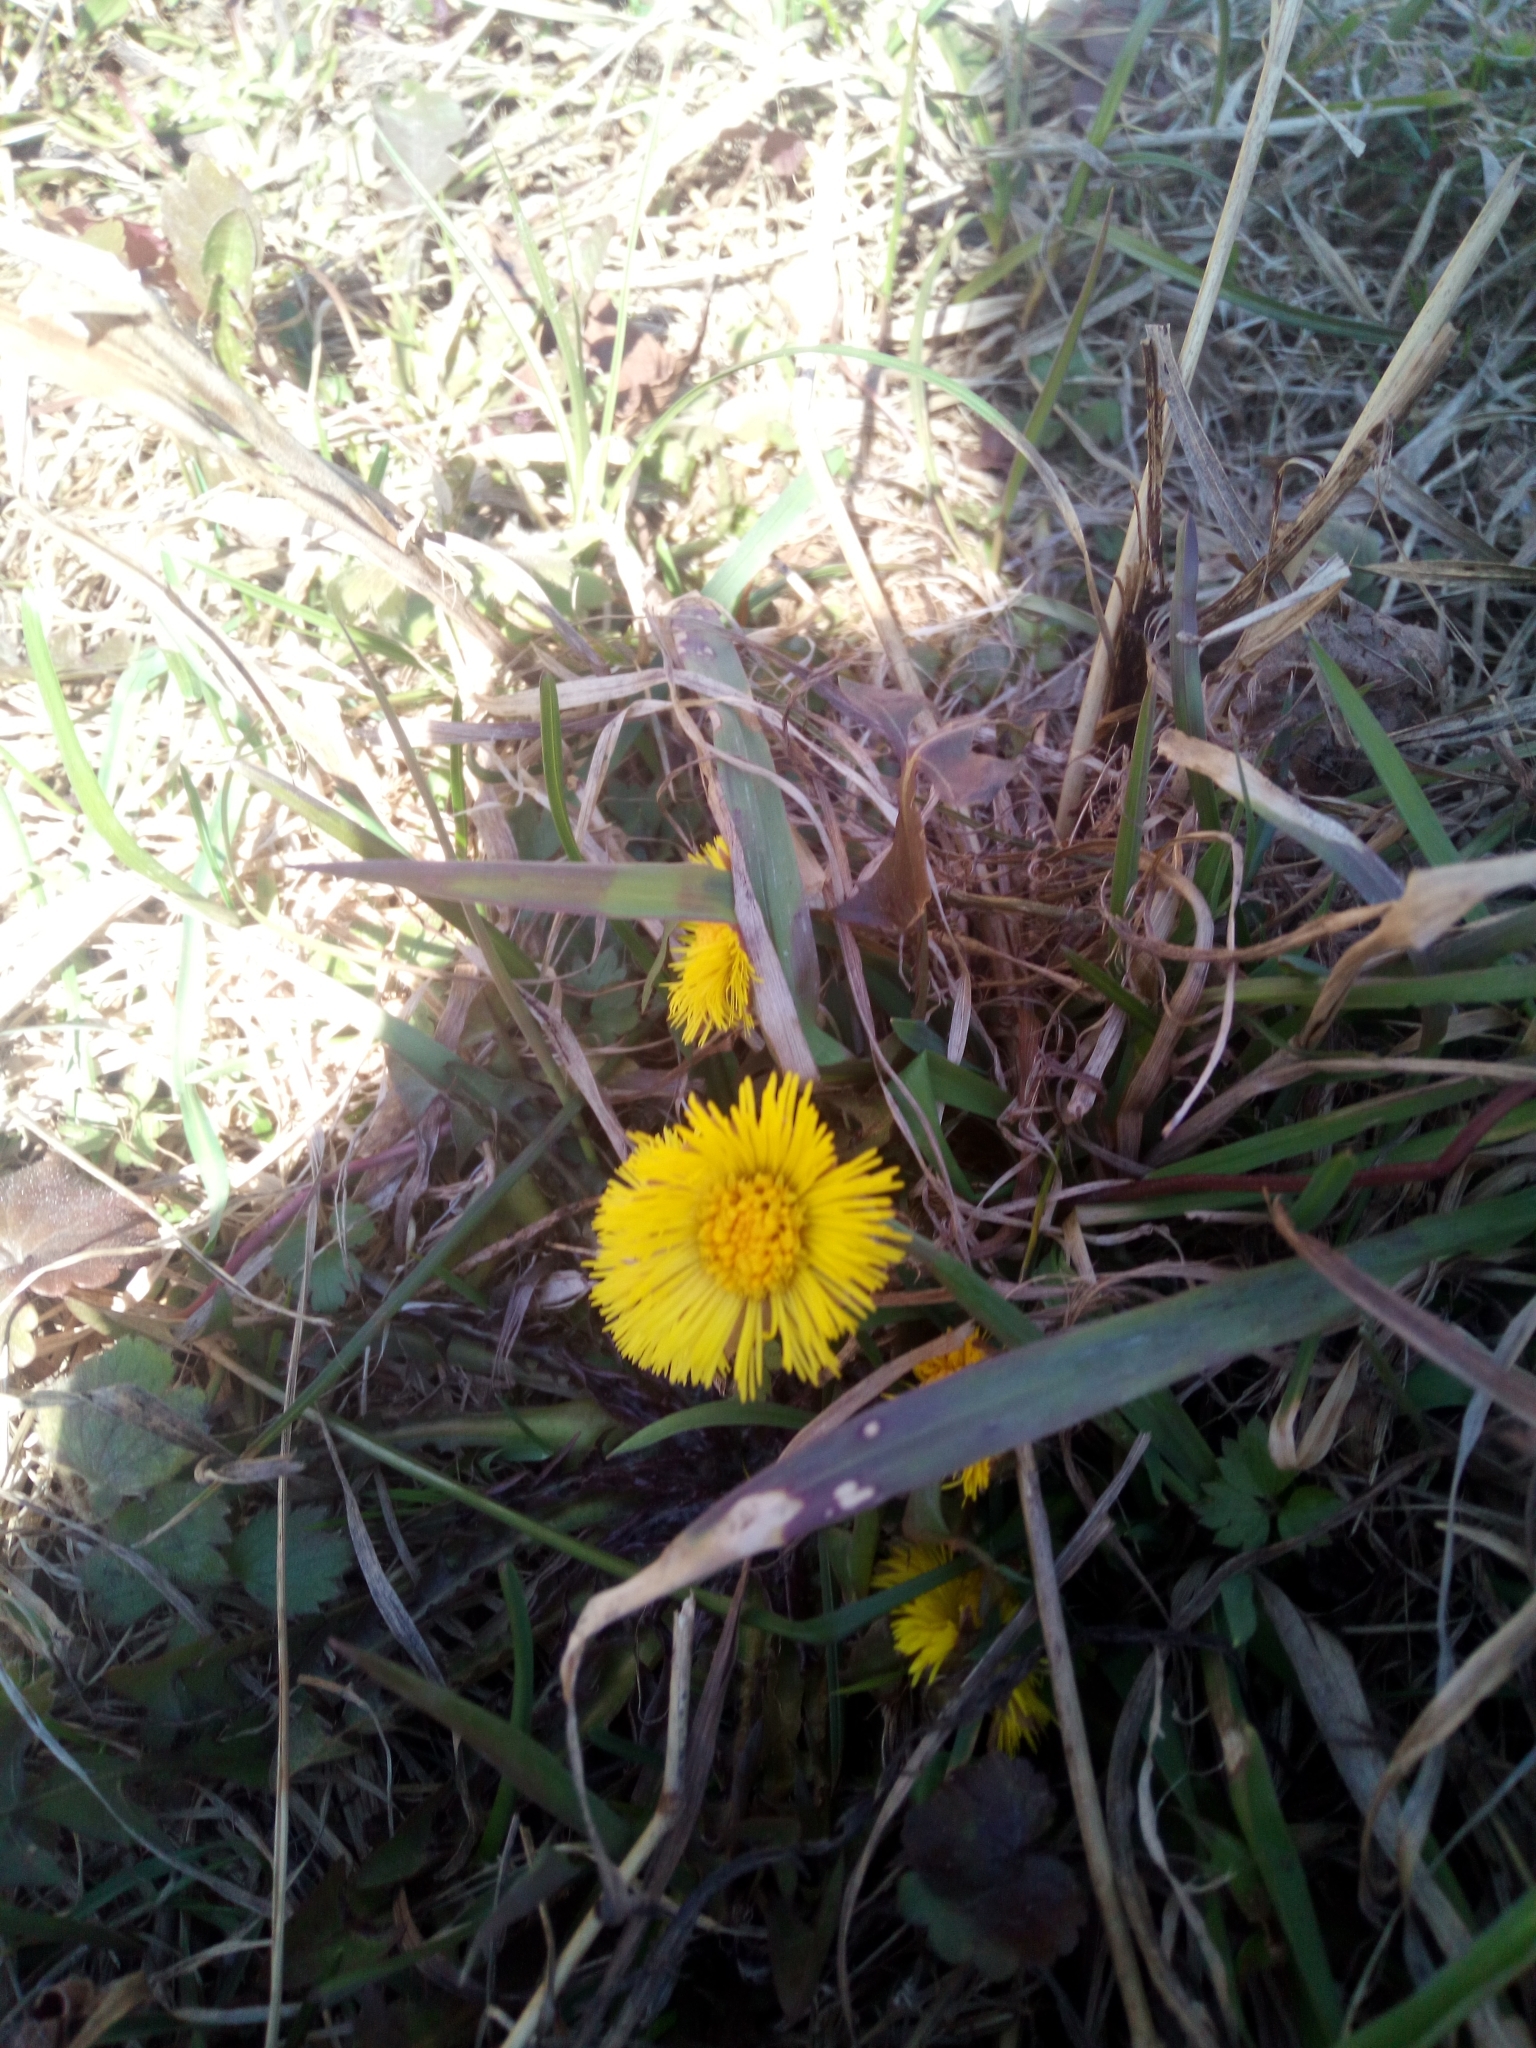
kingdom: Plantae
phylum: Tracheophyta
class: Magnoliopsida
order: Asterales
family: Asteraceae
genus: Tussilago
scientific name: Tussilago farfara
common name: Coltsfoot
